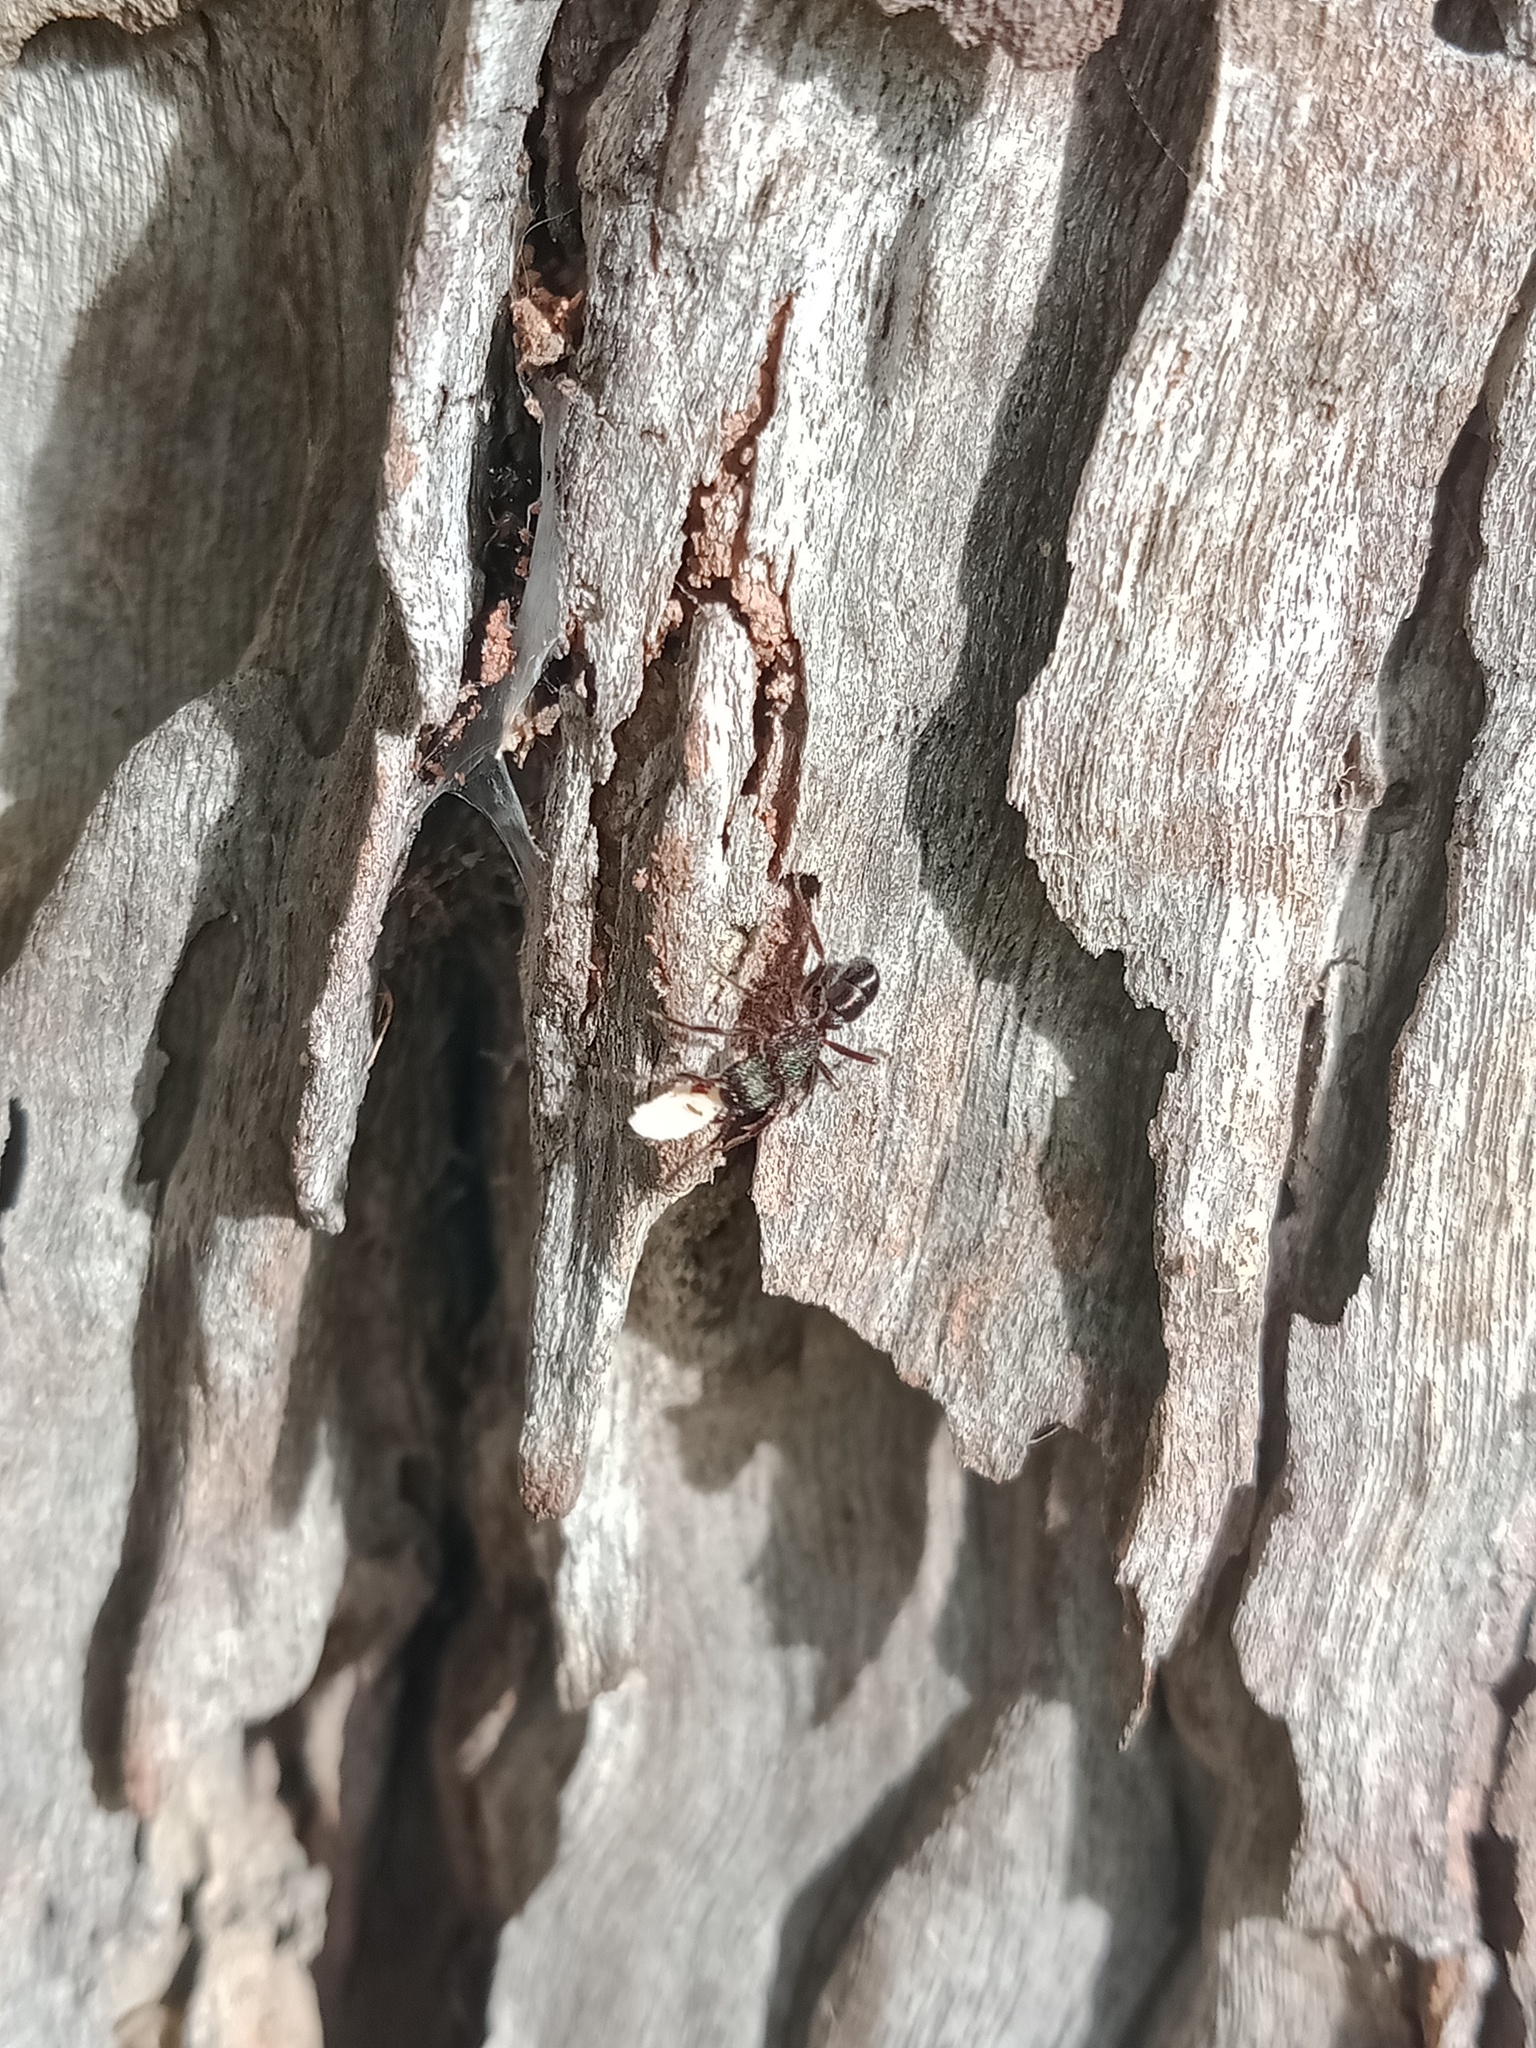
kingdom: Animalia
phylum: Arthropoda
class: Insecta
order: Hymenoptera
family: Formicidae
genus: Rhytidoponera
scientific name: Rhytidoponera metallica
